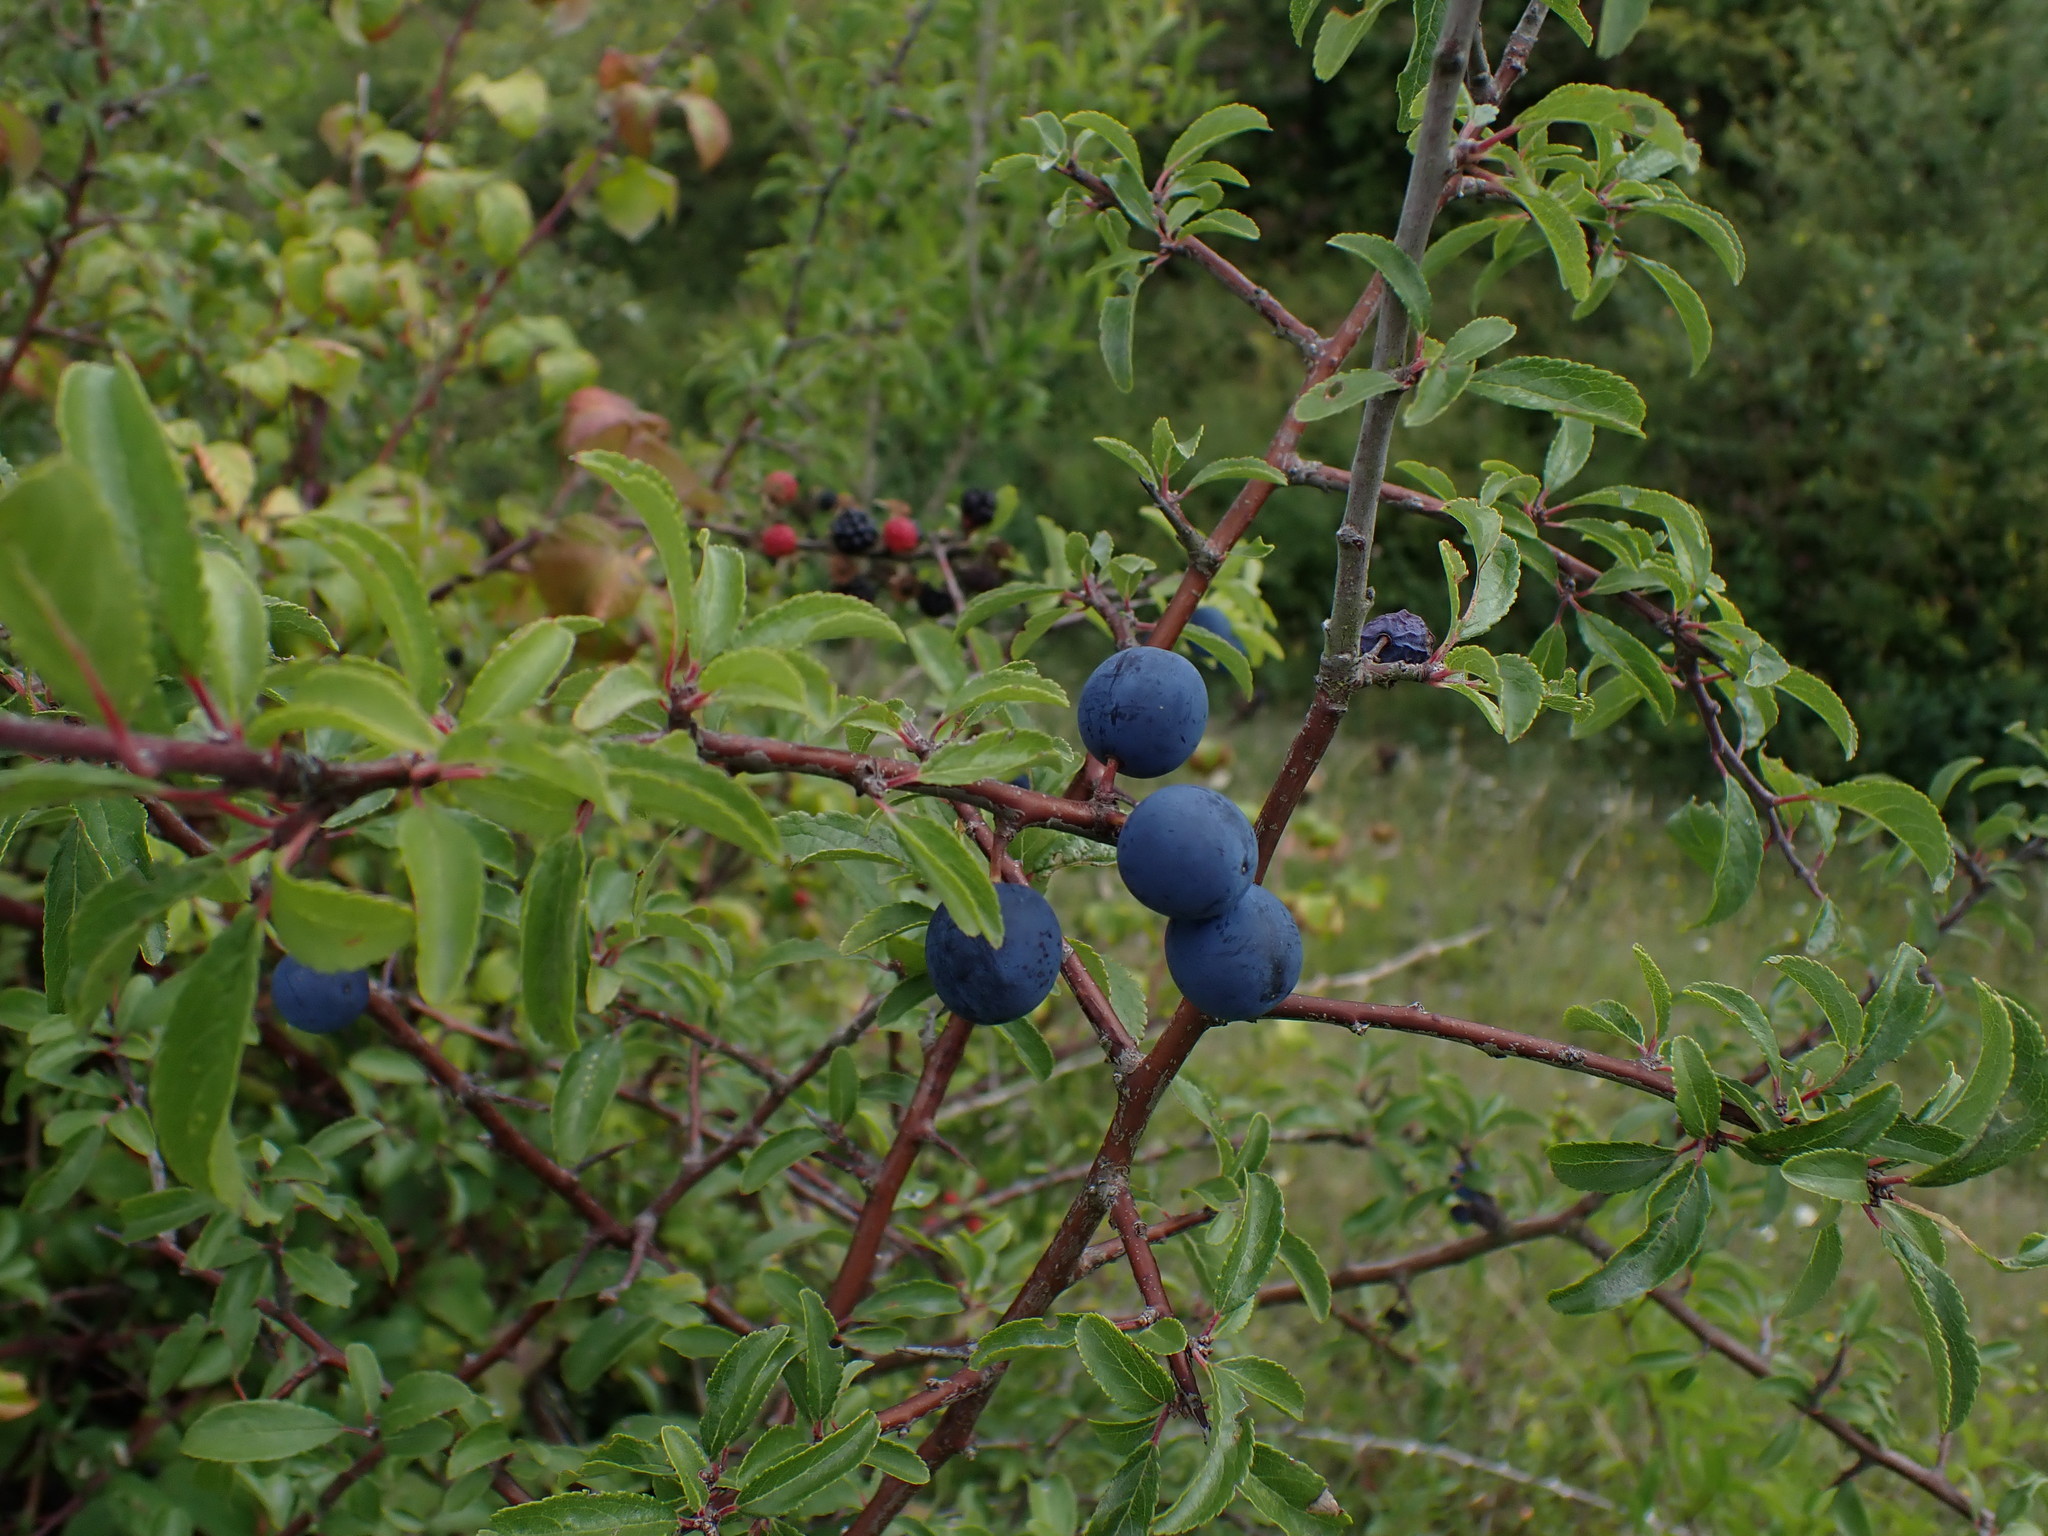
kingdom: Plantae
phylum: Tracheophyta
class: Magnoliopsida
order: Rosales
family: Rosaceae
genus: Prunus
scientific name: Prunus spinosa
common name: Blackthorn
